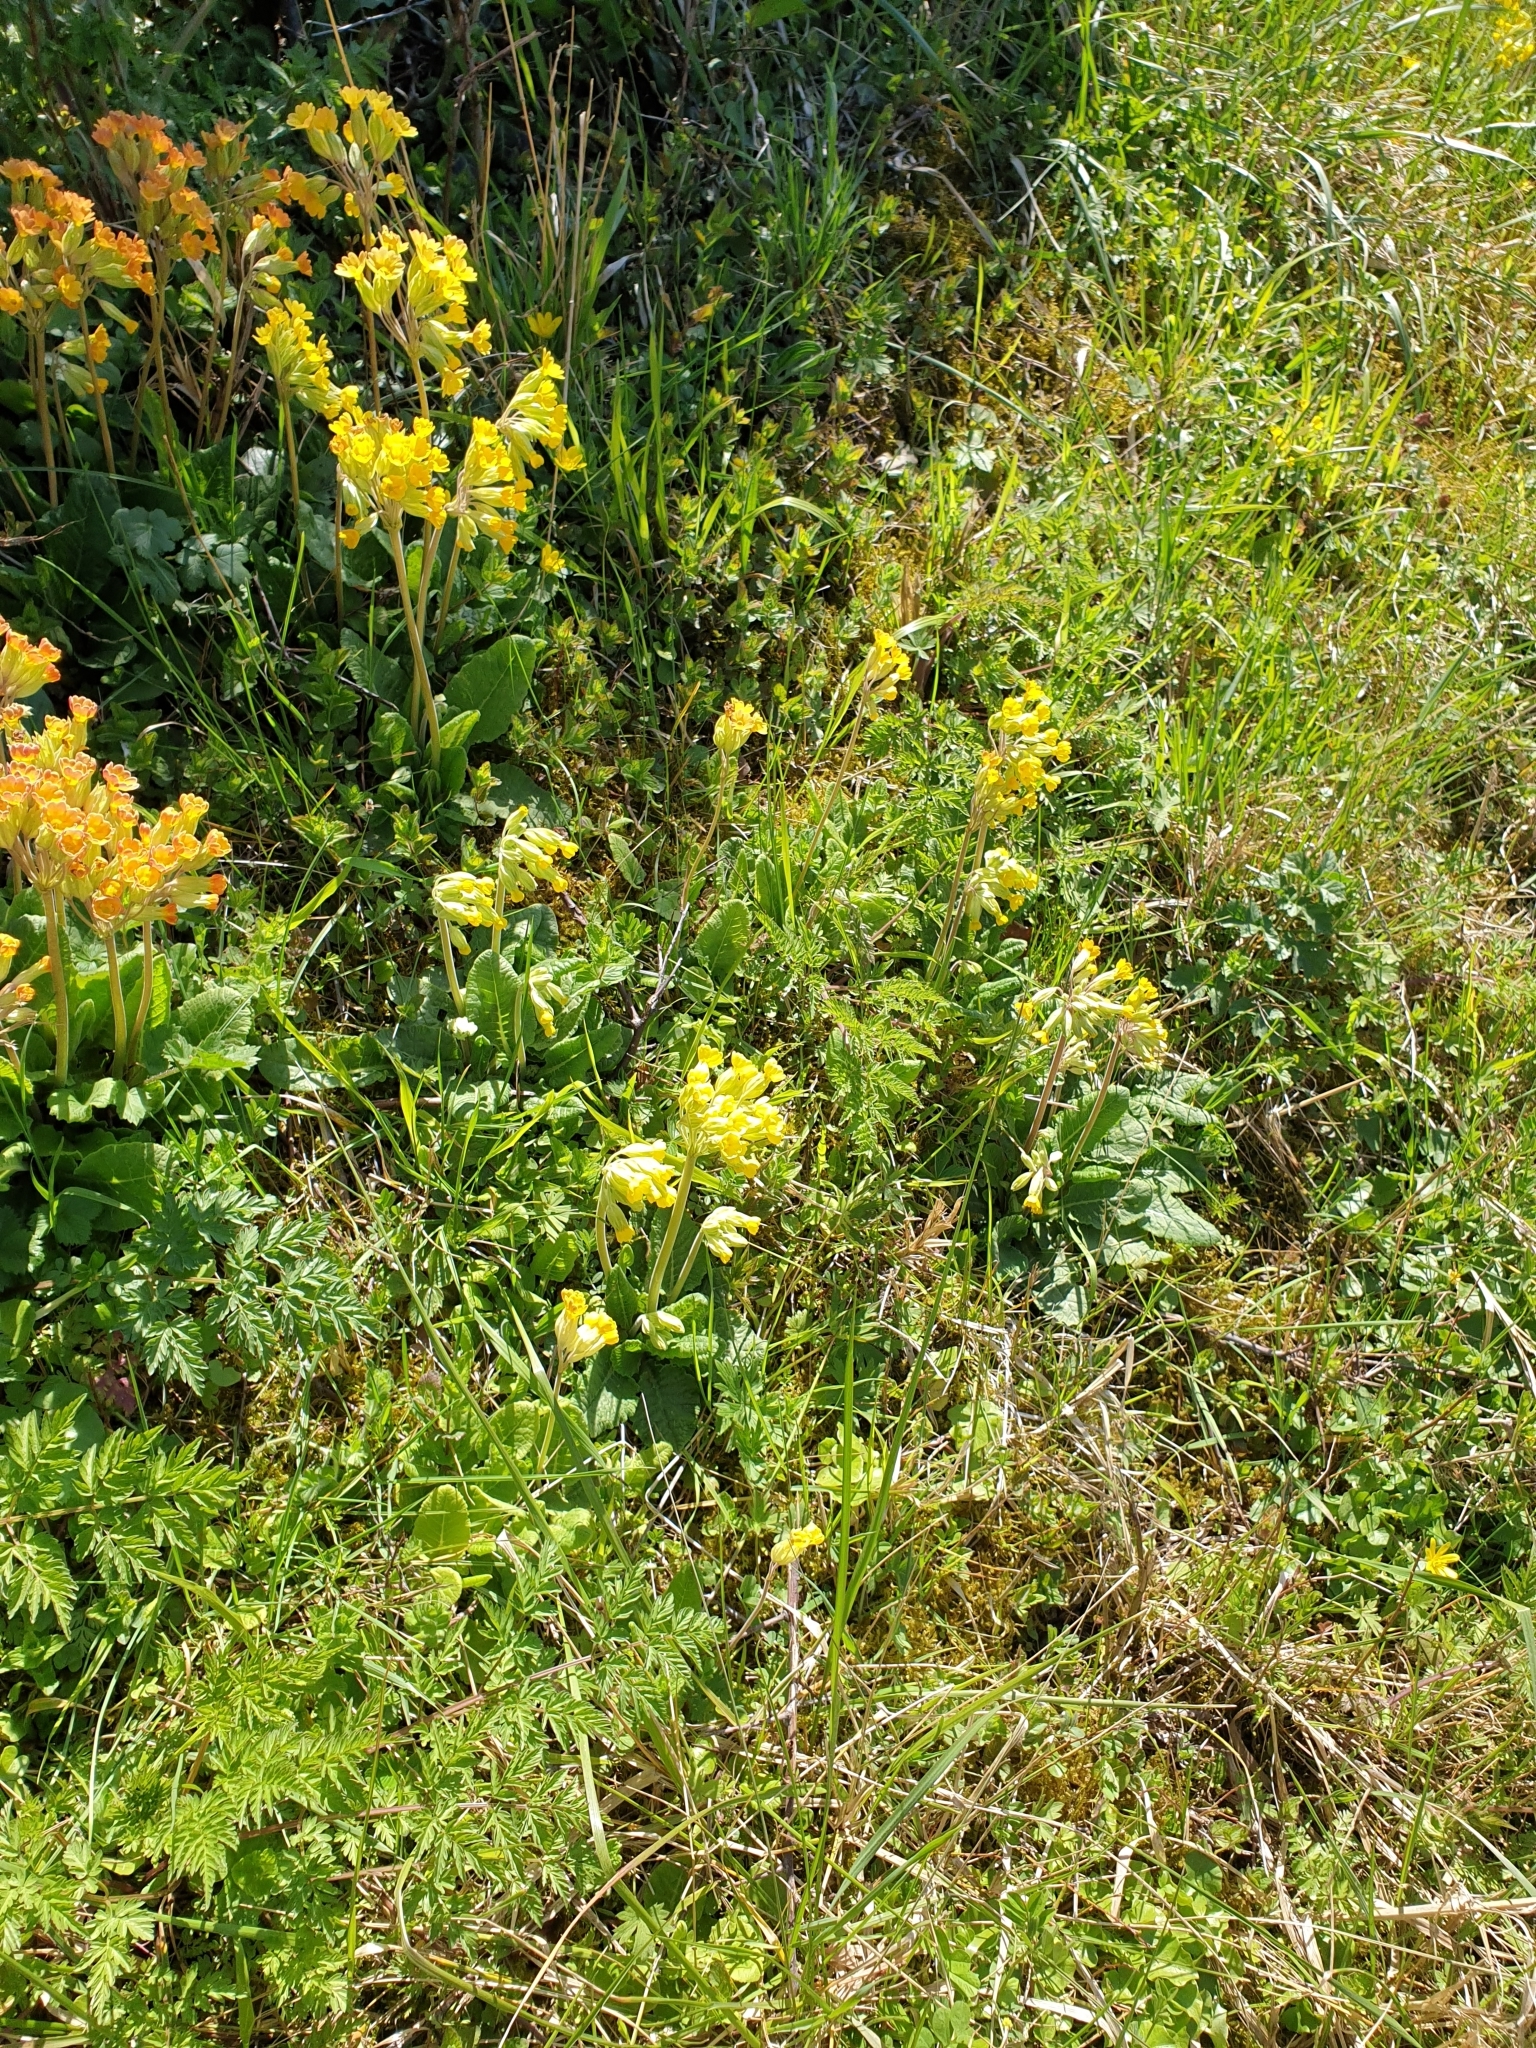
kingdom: Plantae
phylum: Tracheophyta
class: Magnoliopsida
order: Ericales
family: Primulaceae
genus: Primula
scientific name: Primula veris
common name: Cowslip
